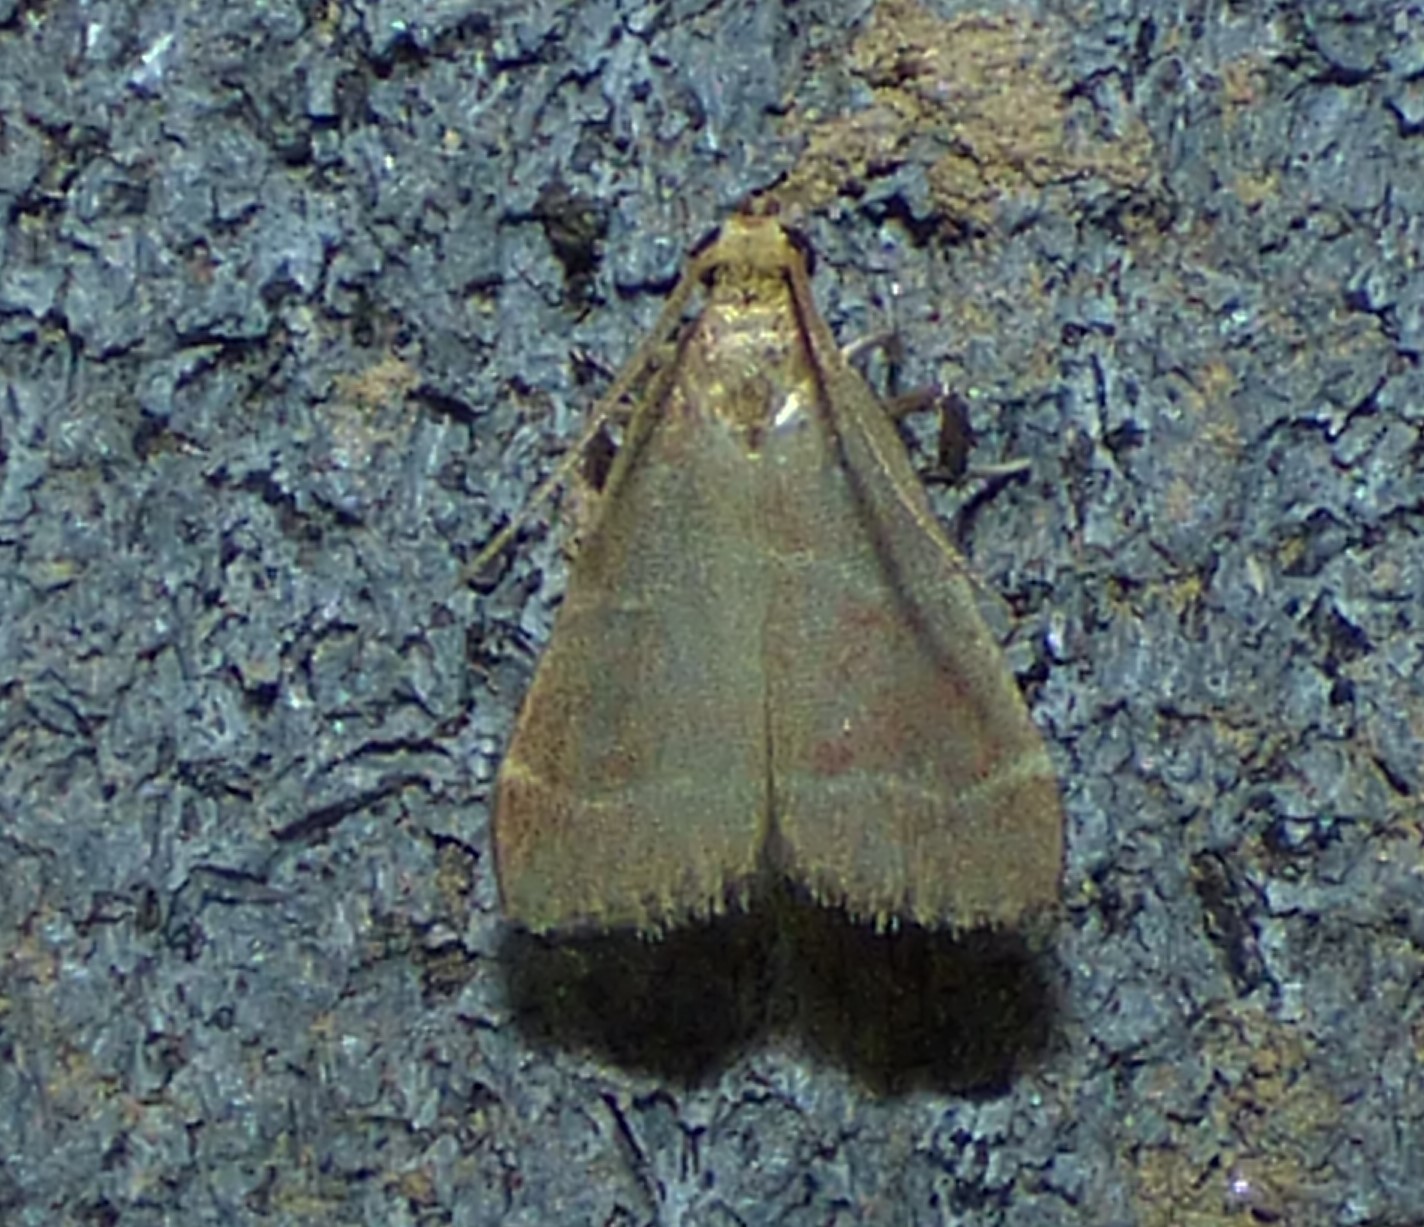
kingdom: Animalia
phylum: Arthropoda
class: Insecta
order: Lepidoptera
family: Pyralidae
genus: Arta
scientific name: Arta olivalis
